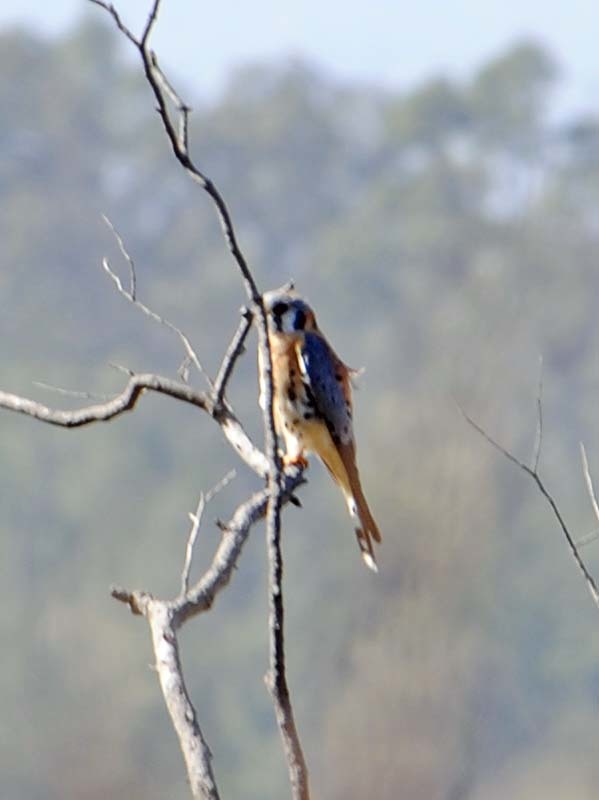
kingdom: Animalia
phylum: Chordata
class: Aves
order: Falconiformes
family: Falconidae
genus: Falco
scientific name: Falco sparverius
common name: American kestrel
